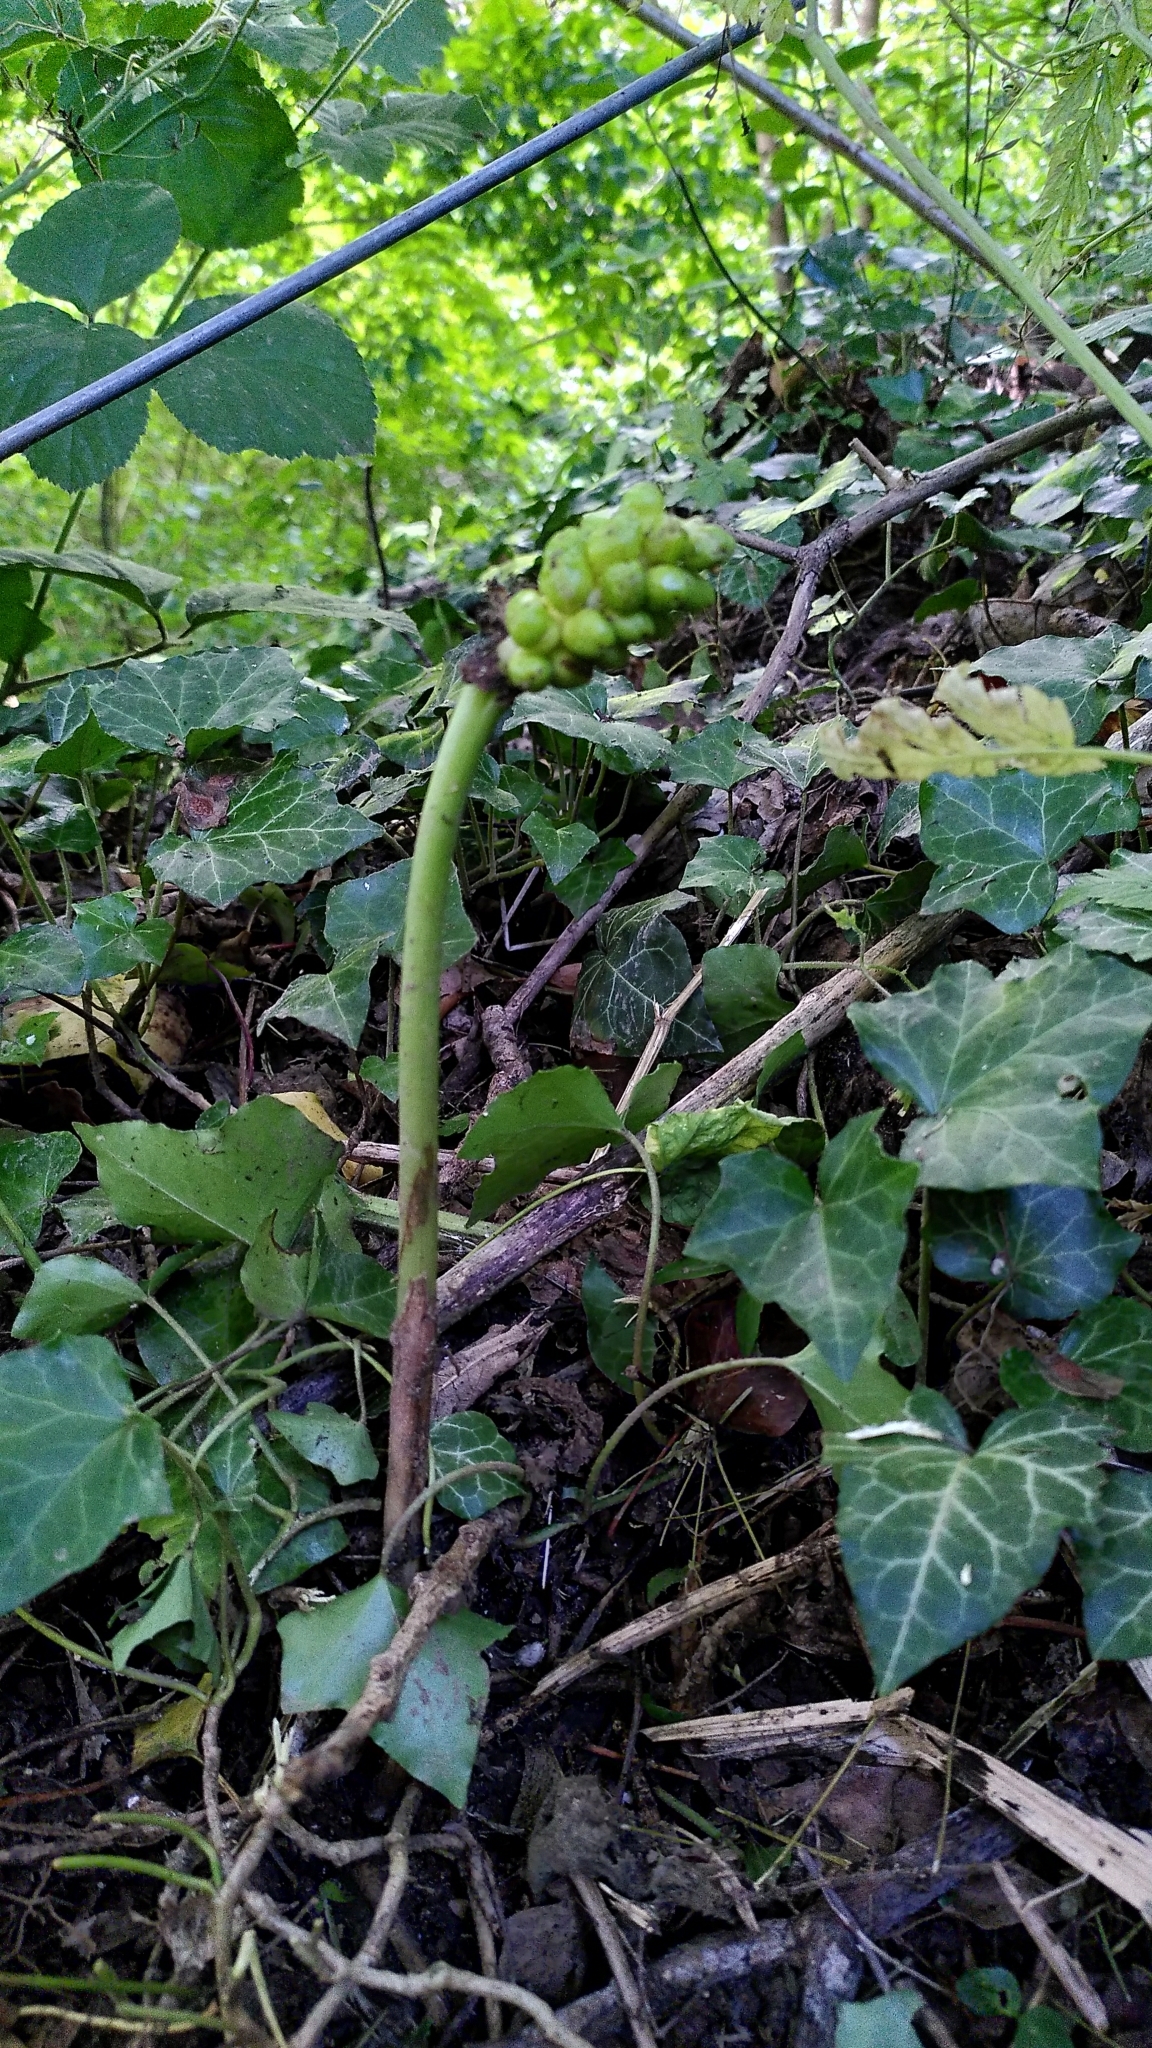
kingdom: Plantae
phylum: Tracheophyta
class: Liliopsida
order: Alismatales
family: Araceae
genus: Arum
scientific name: Arum maculatum
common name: Lords-and-ladies
